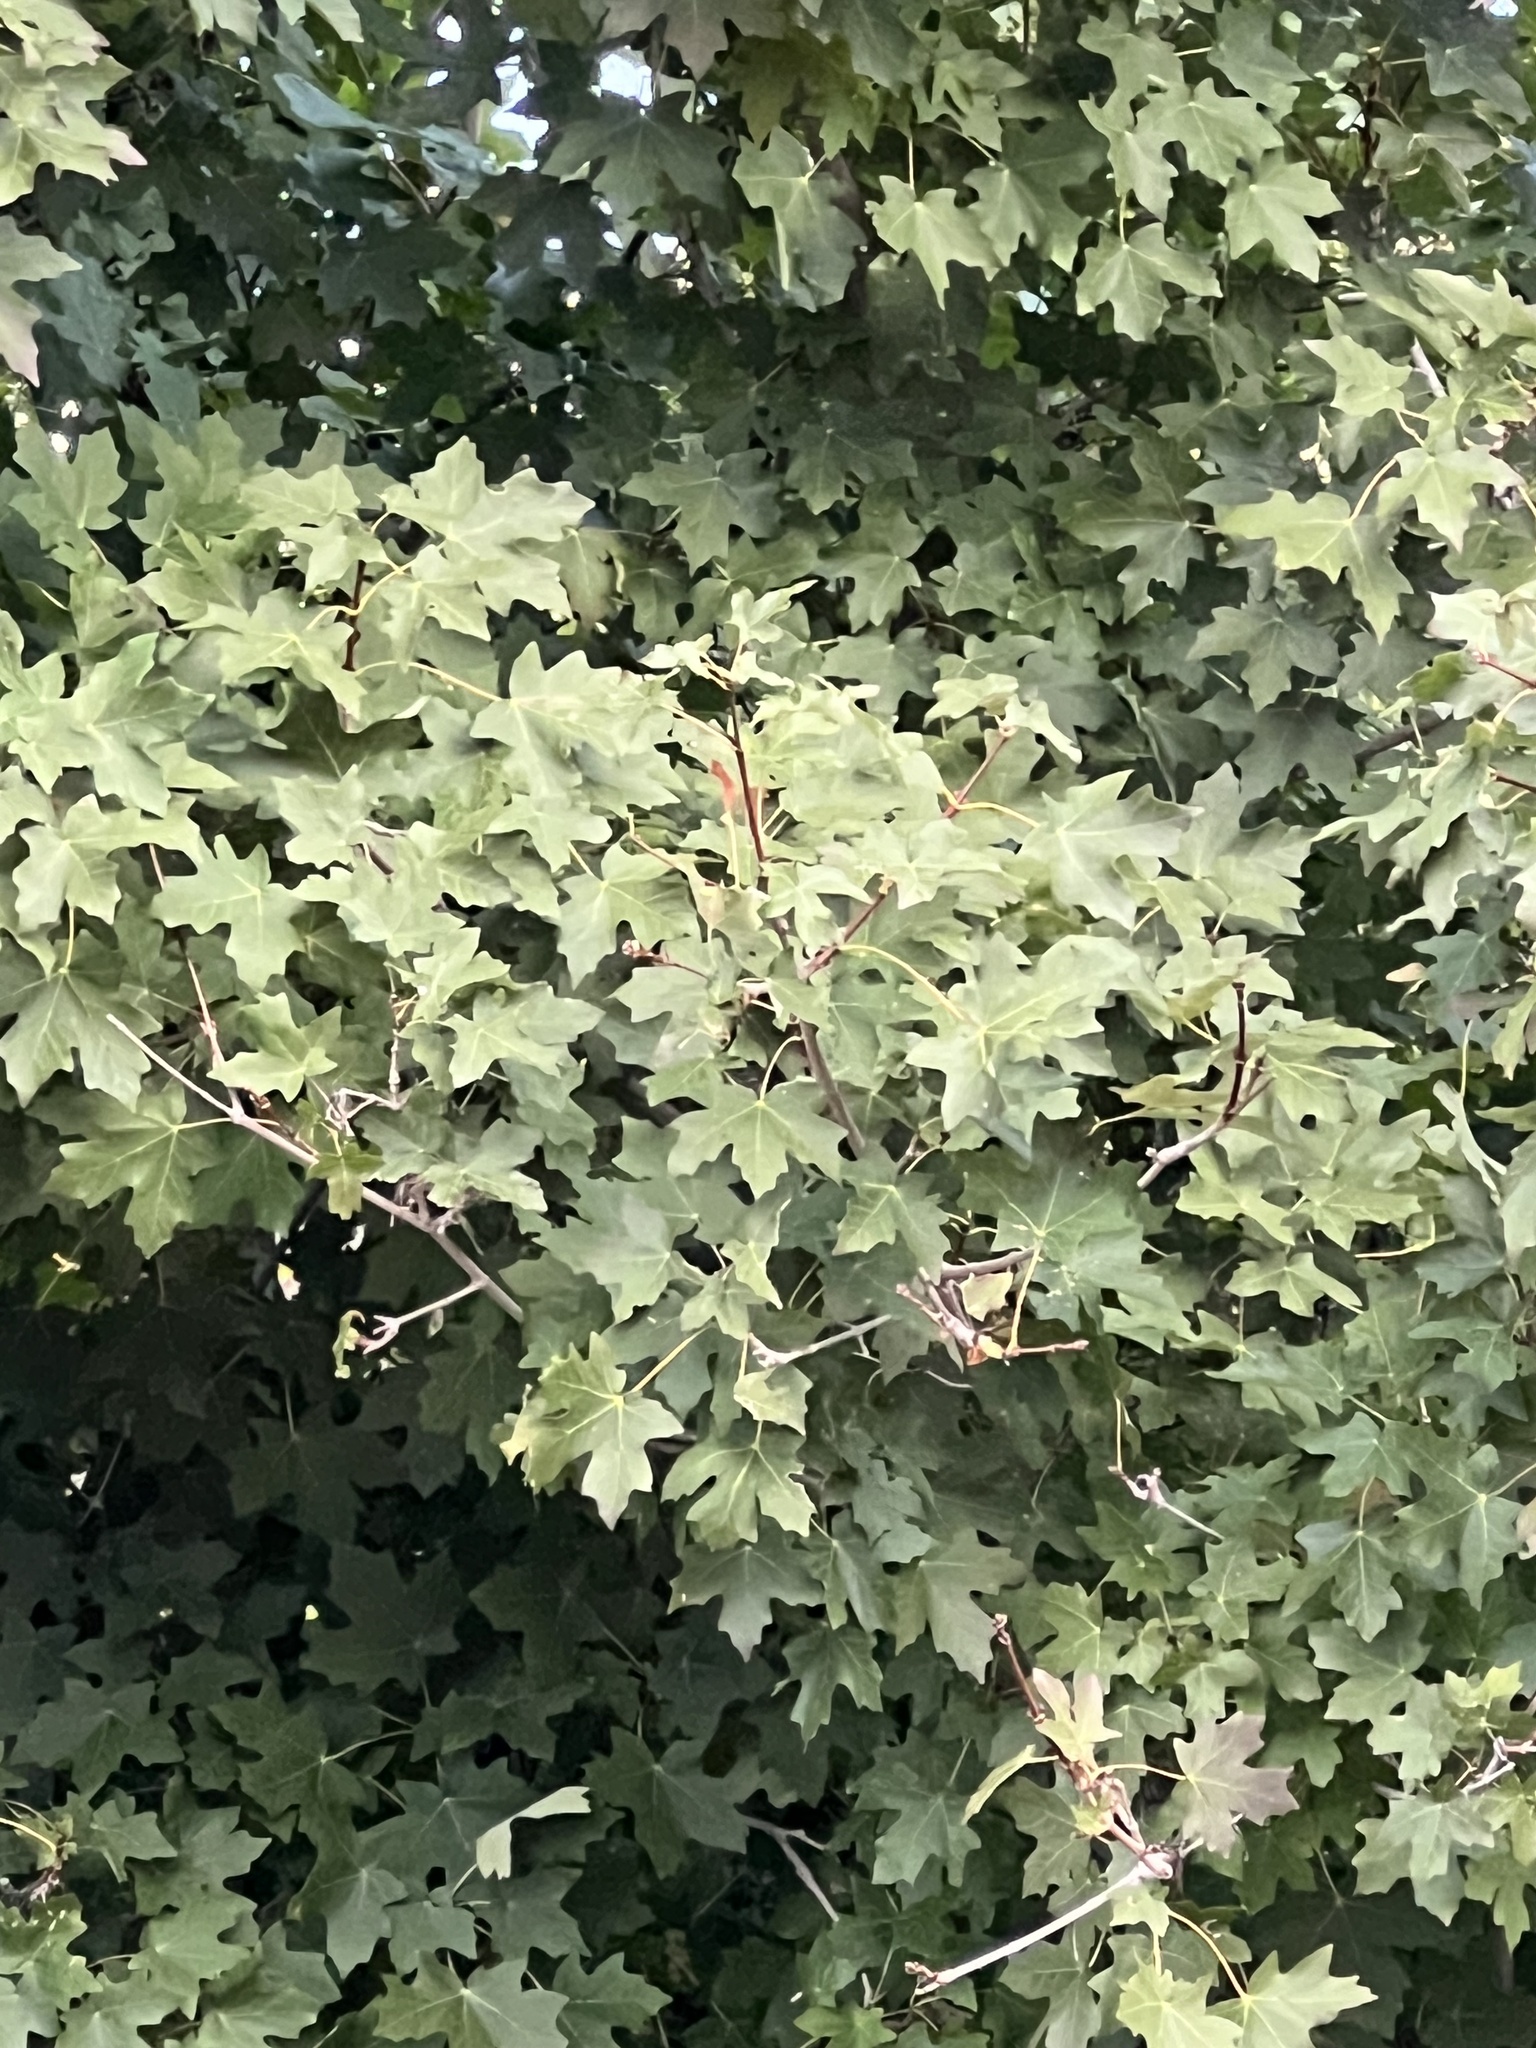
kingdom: Plantae
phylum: Tracheophyta
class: Magnoliopsida
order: Sapindales
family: Sapindaceae
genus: Acer
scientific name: Acer grandidentatum
